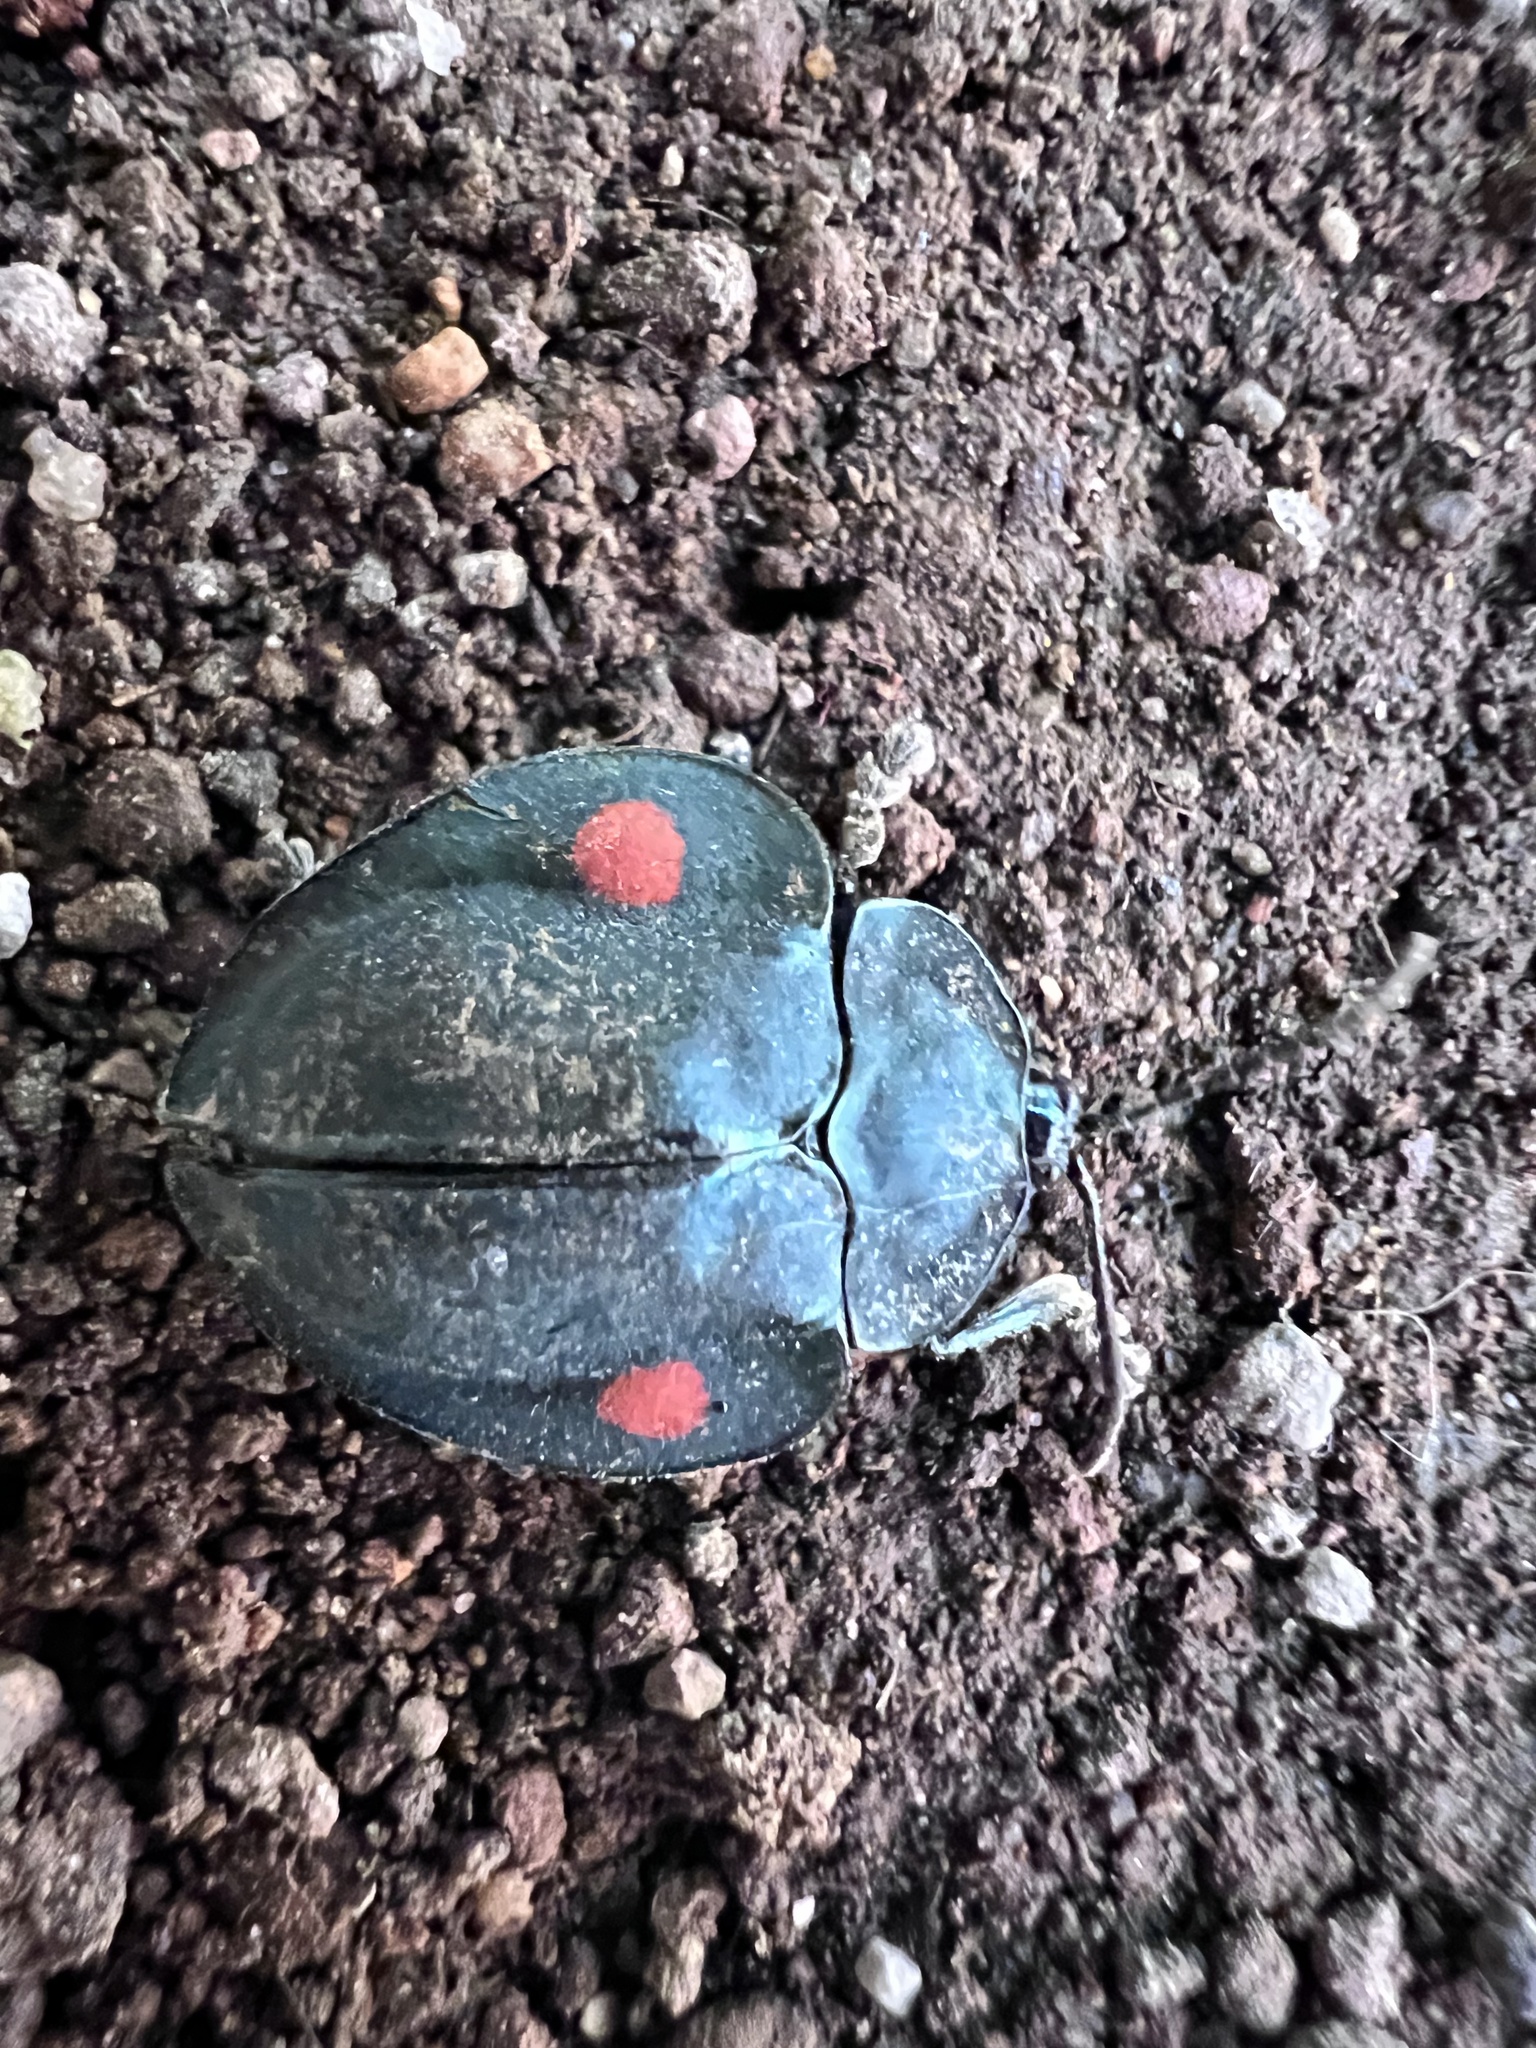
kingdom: Animalia
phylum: Arthropoda
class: Insecta
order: Coleoptera
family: Chrysomelidae
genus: Stolas
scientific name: Stolas
